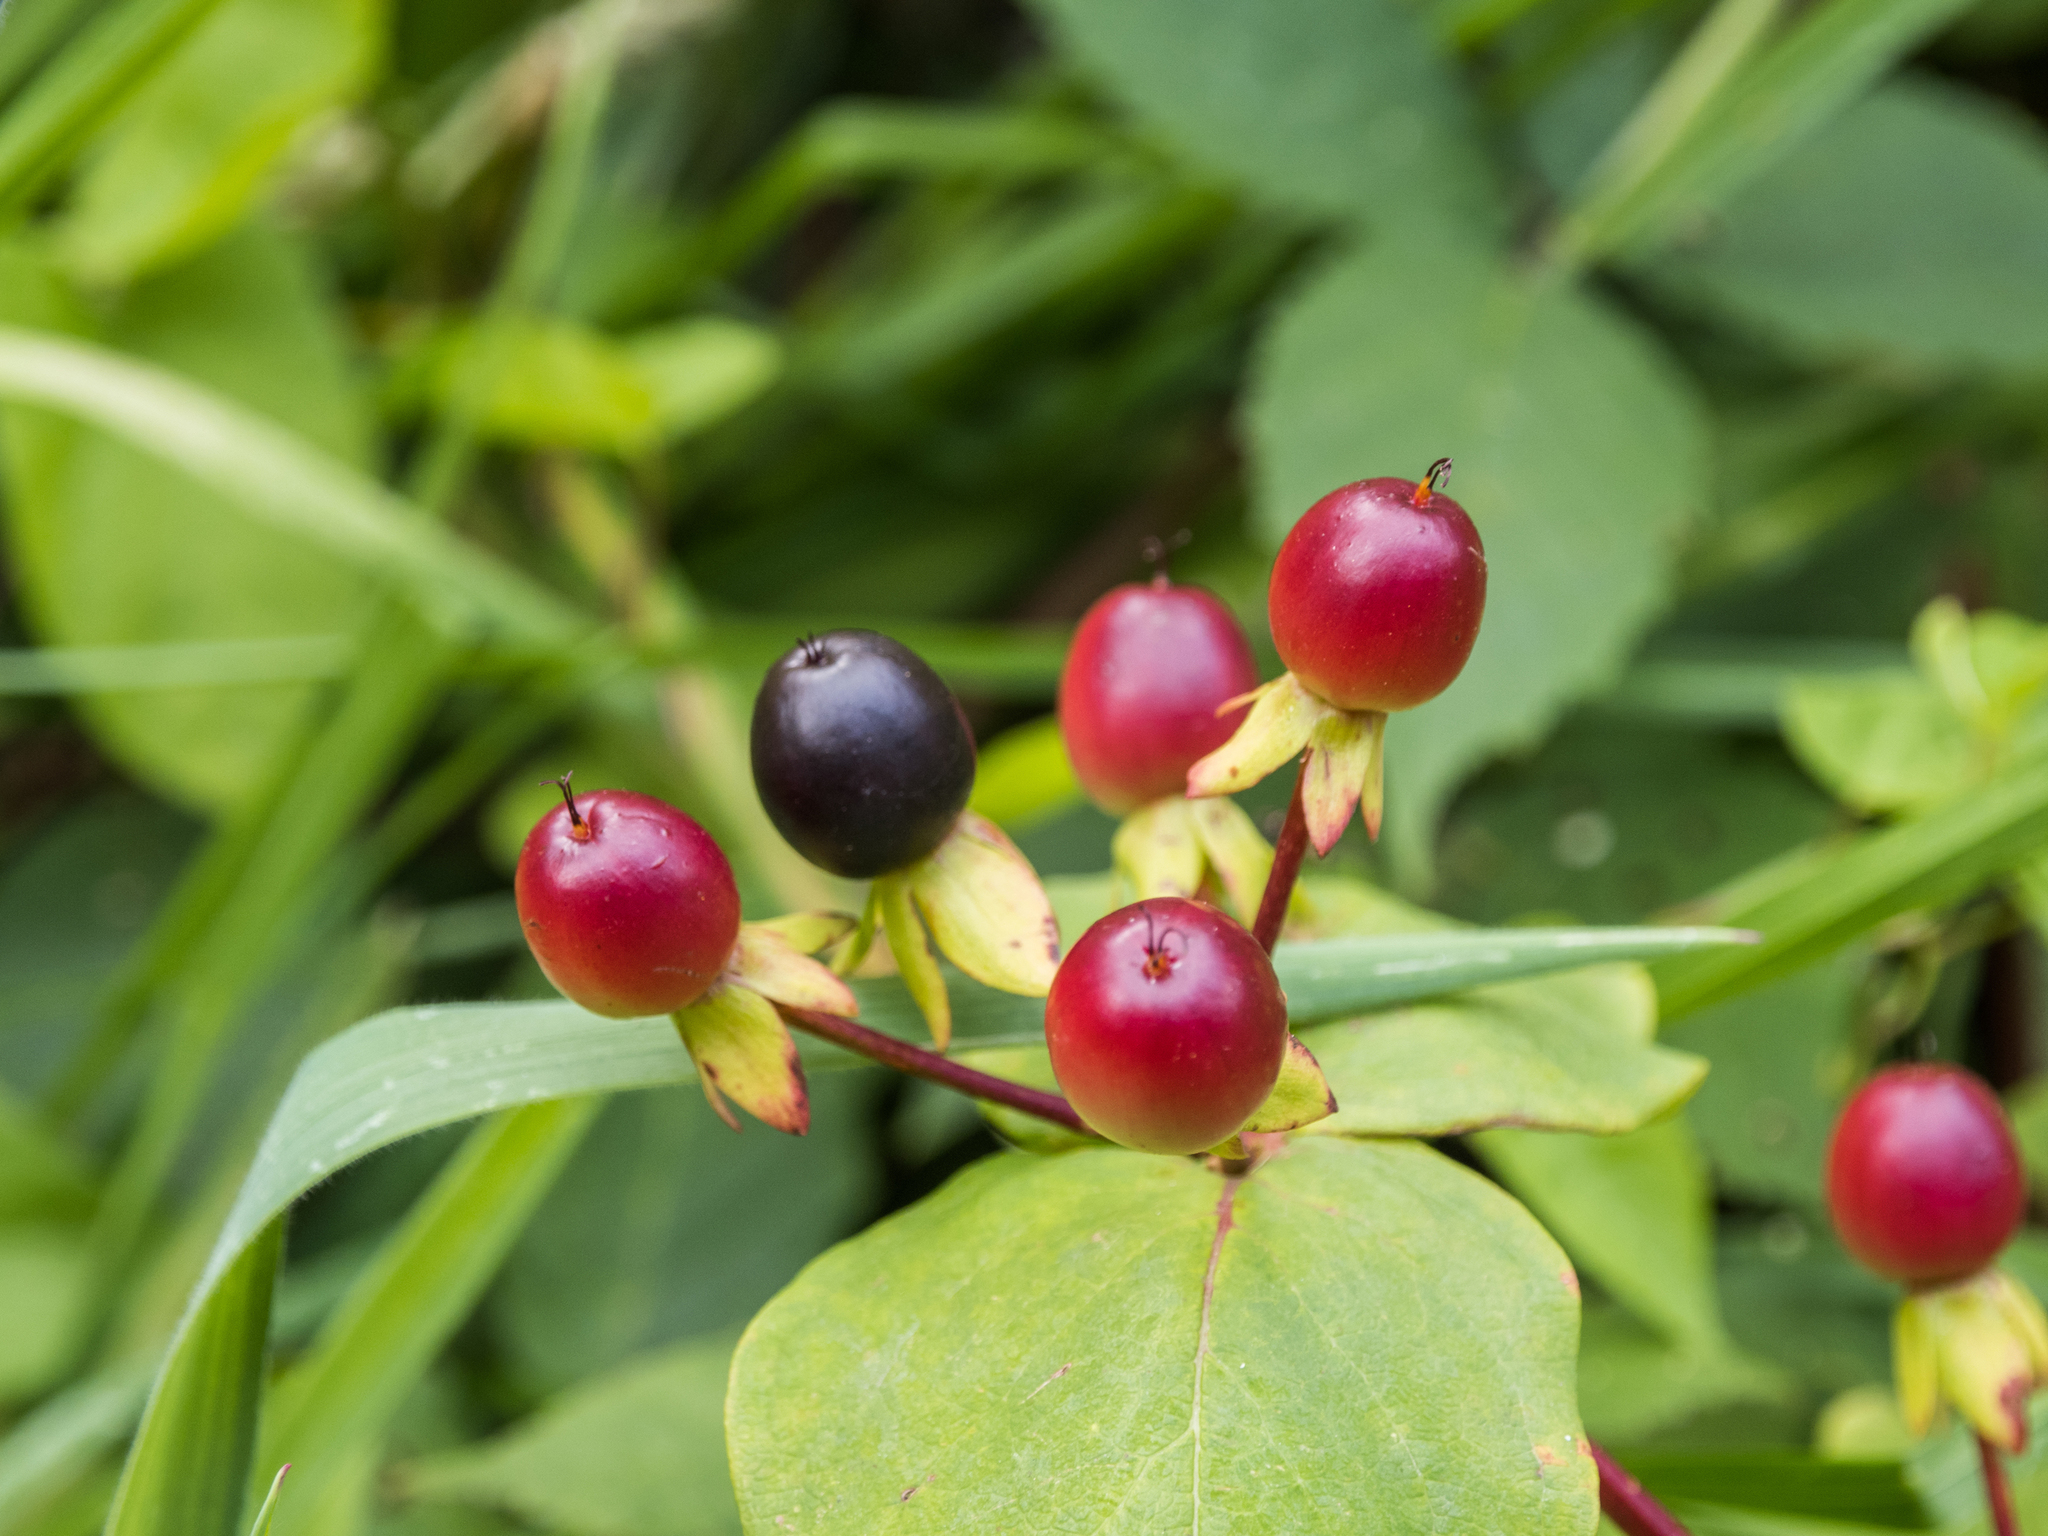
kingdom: Plantae
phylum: Tracheophyta
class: Magnoliopsida
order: Malpighiales
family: Hypericaceae
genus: Hypericum
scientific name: Hypericum androsaemum
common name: Sweet-amber
